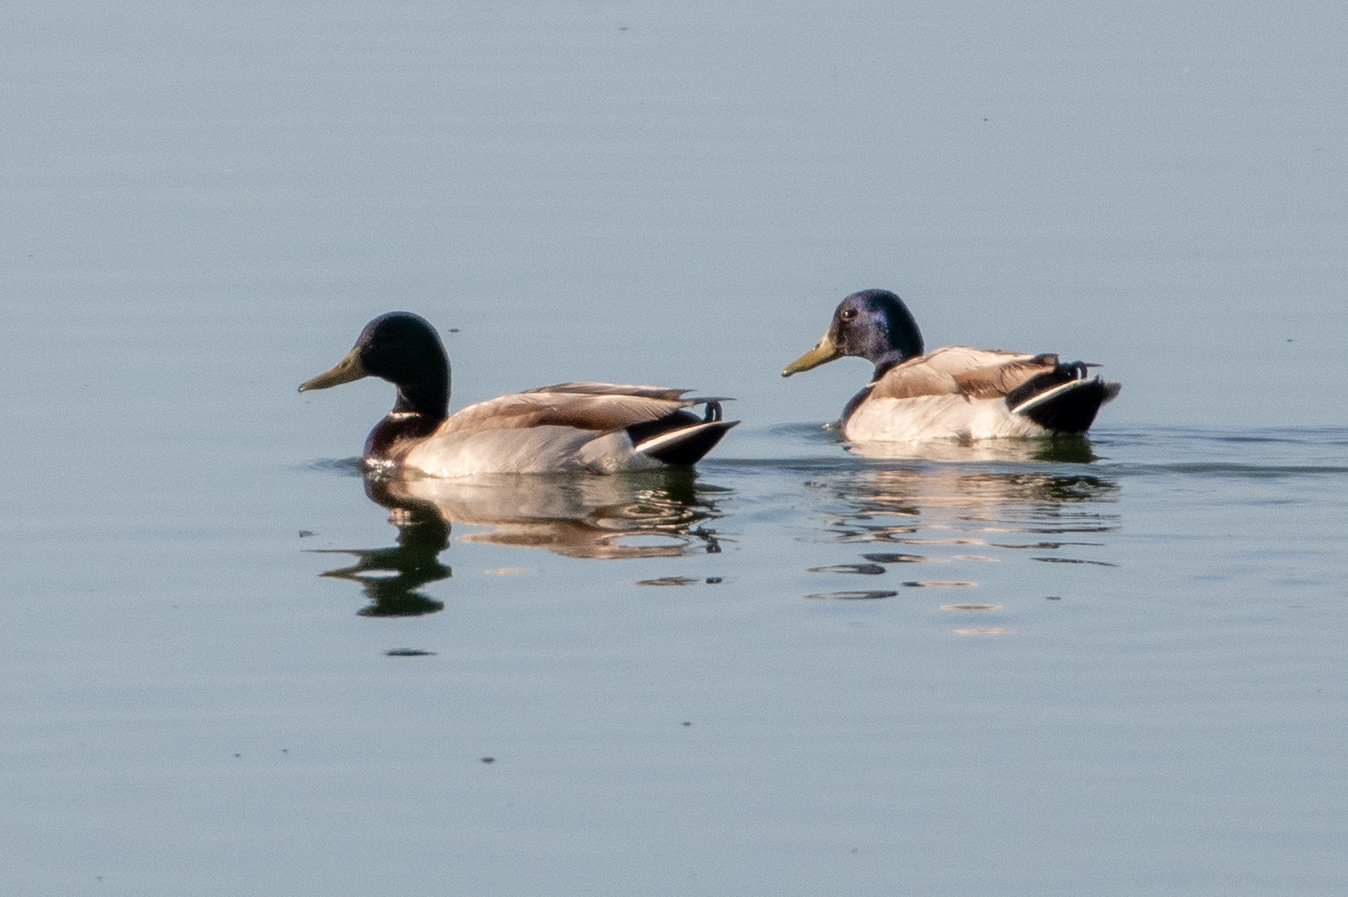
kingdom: Animalia
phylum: Chordata
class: Aves
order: Anseriformes
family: Anatidae
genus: Anas
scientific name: Anas platyrhynchos
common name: Mallard
